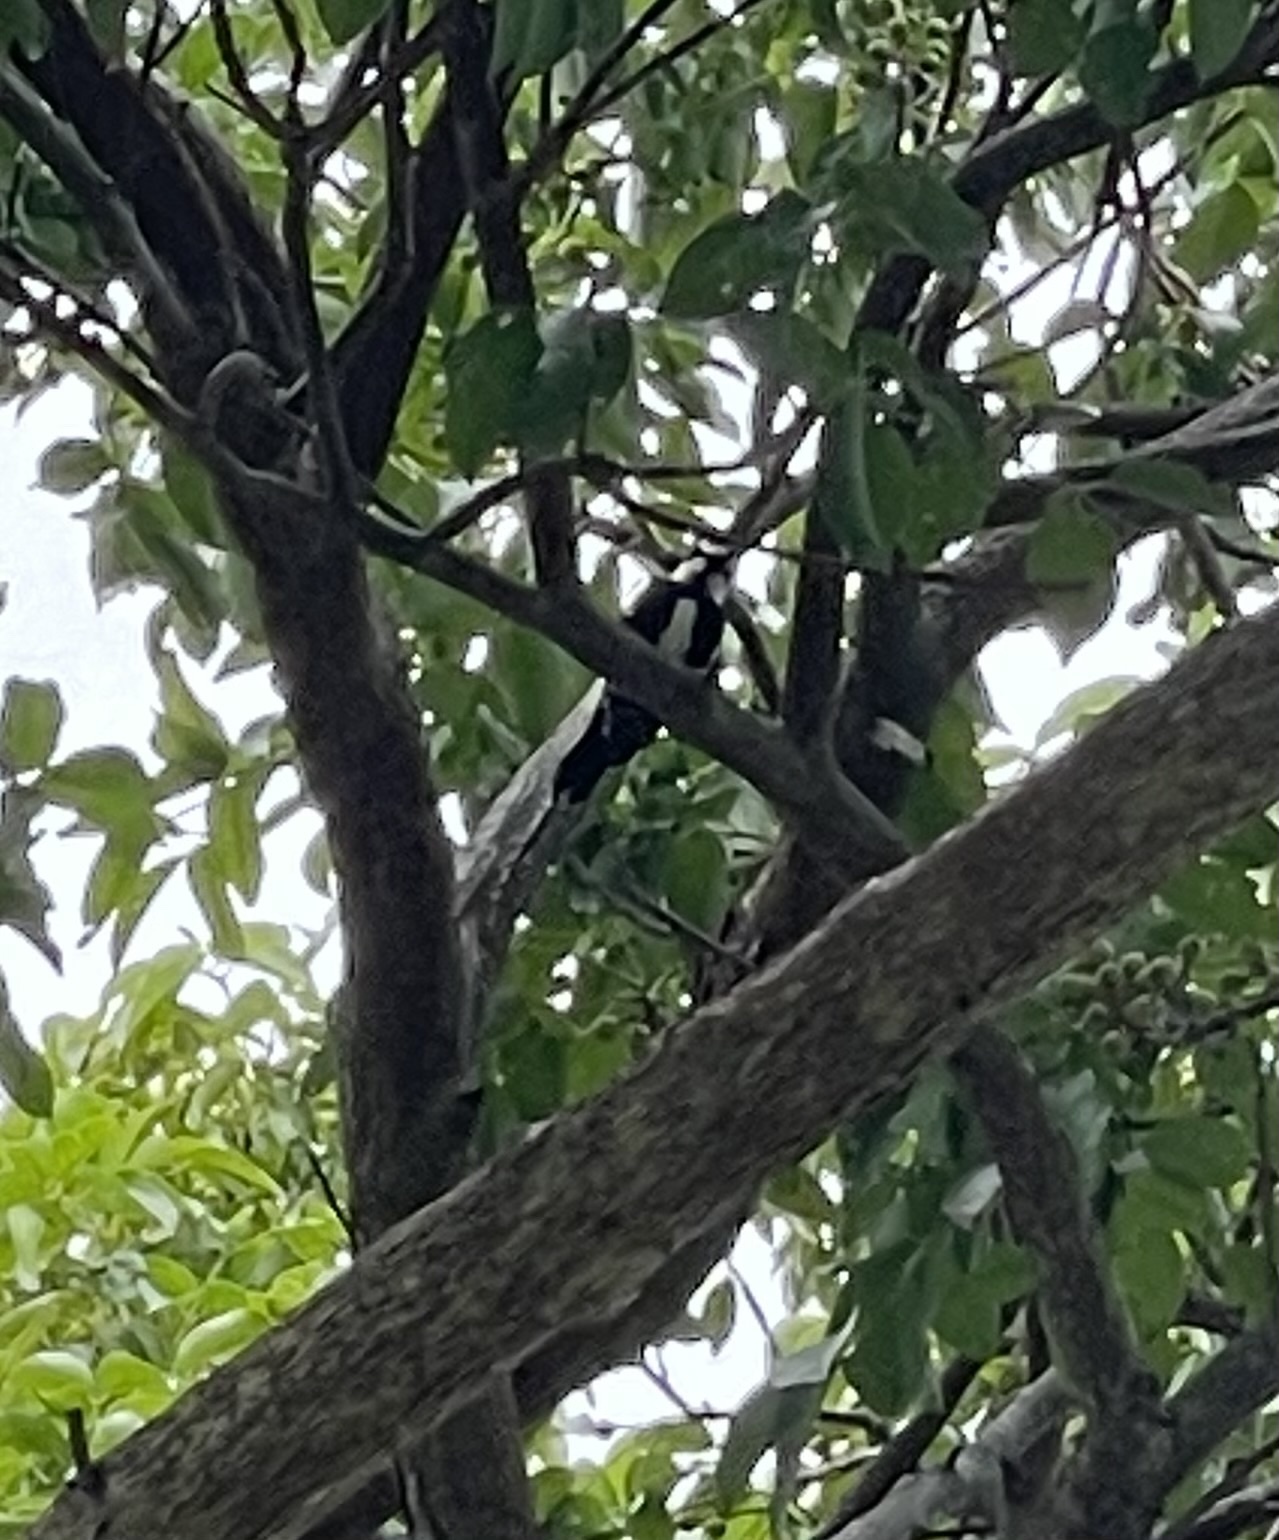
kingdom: Animalia
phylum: Chordata
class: Aves
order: Piciformes
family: Picidae
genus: Dryobates
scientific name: Dryobates pubescens
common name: Downy woodpecker
